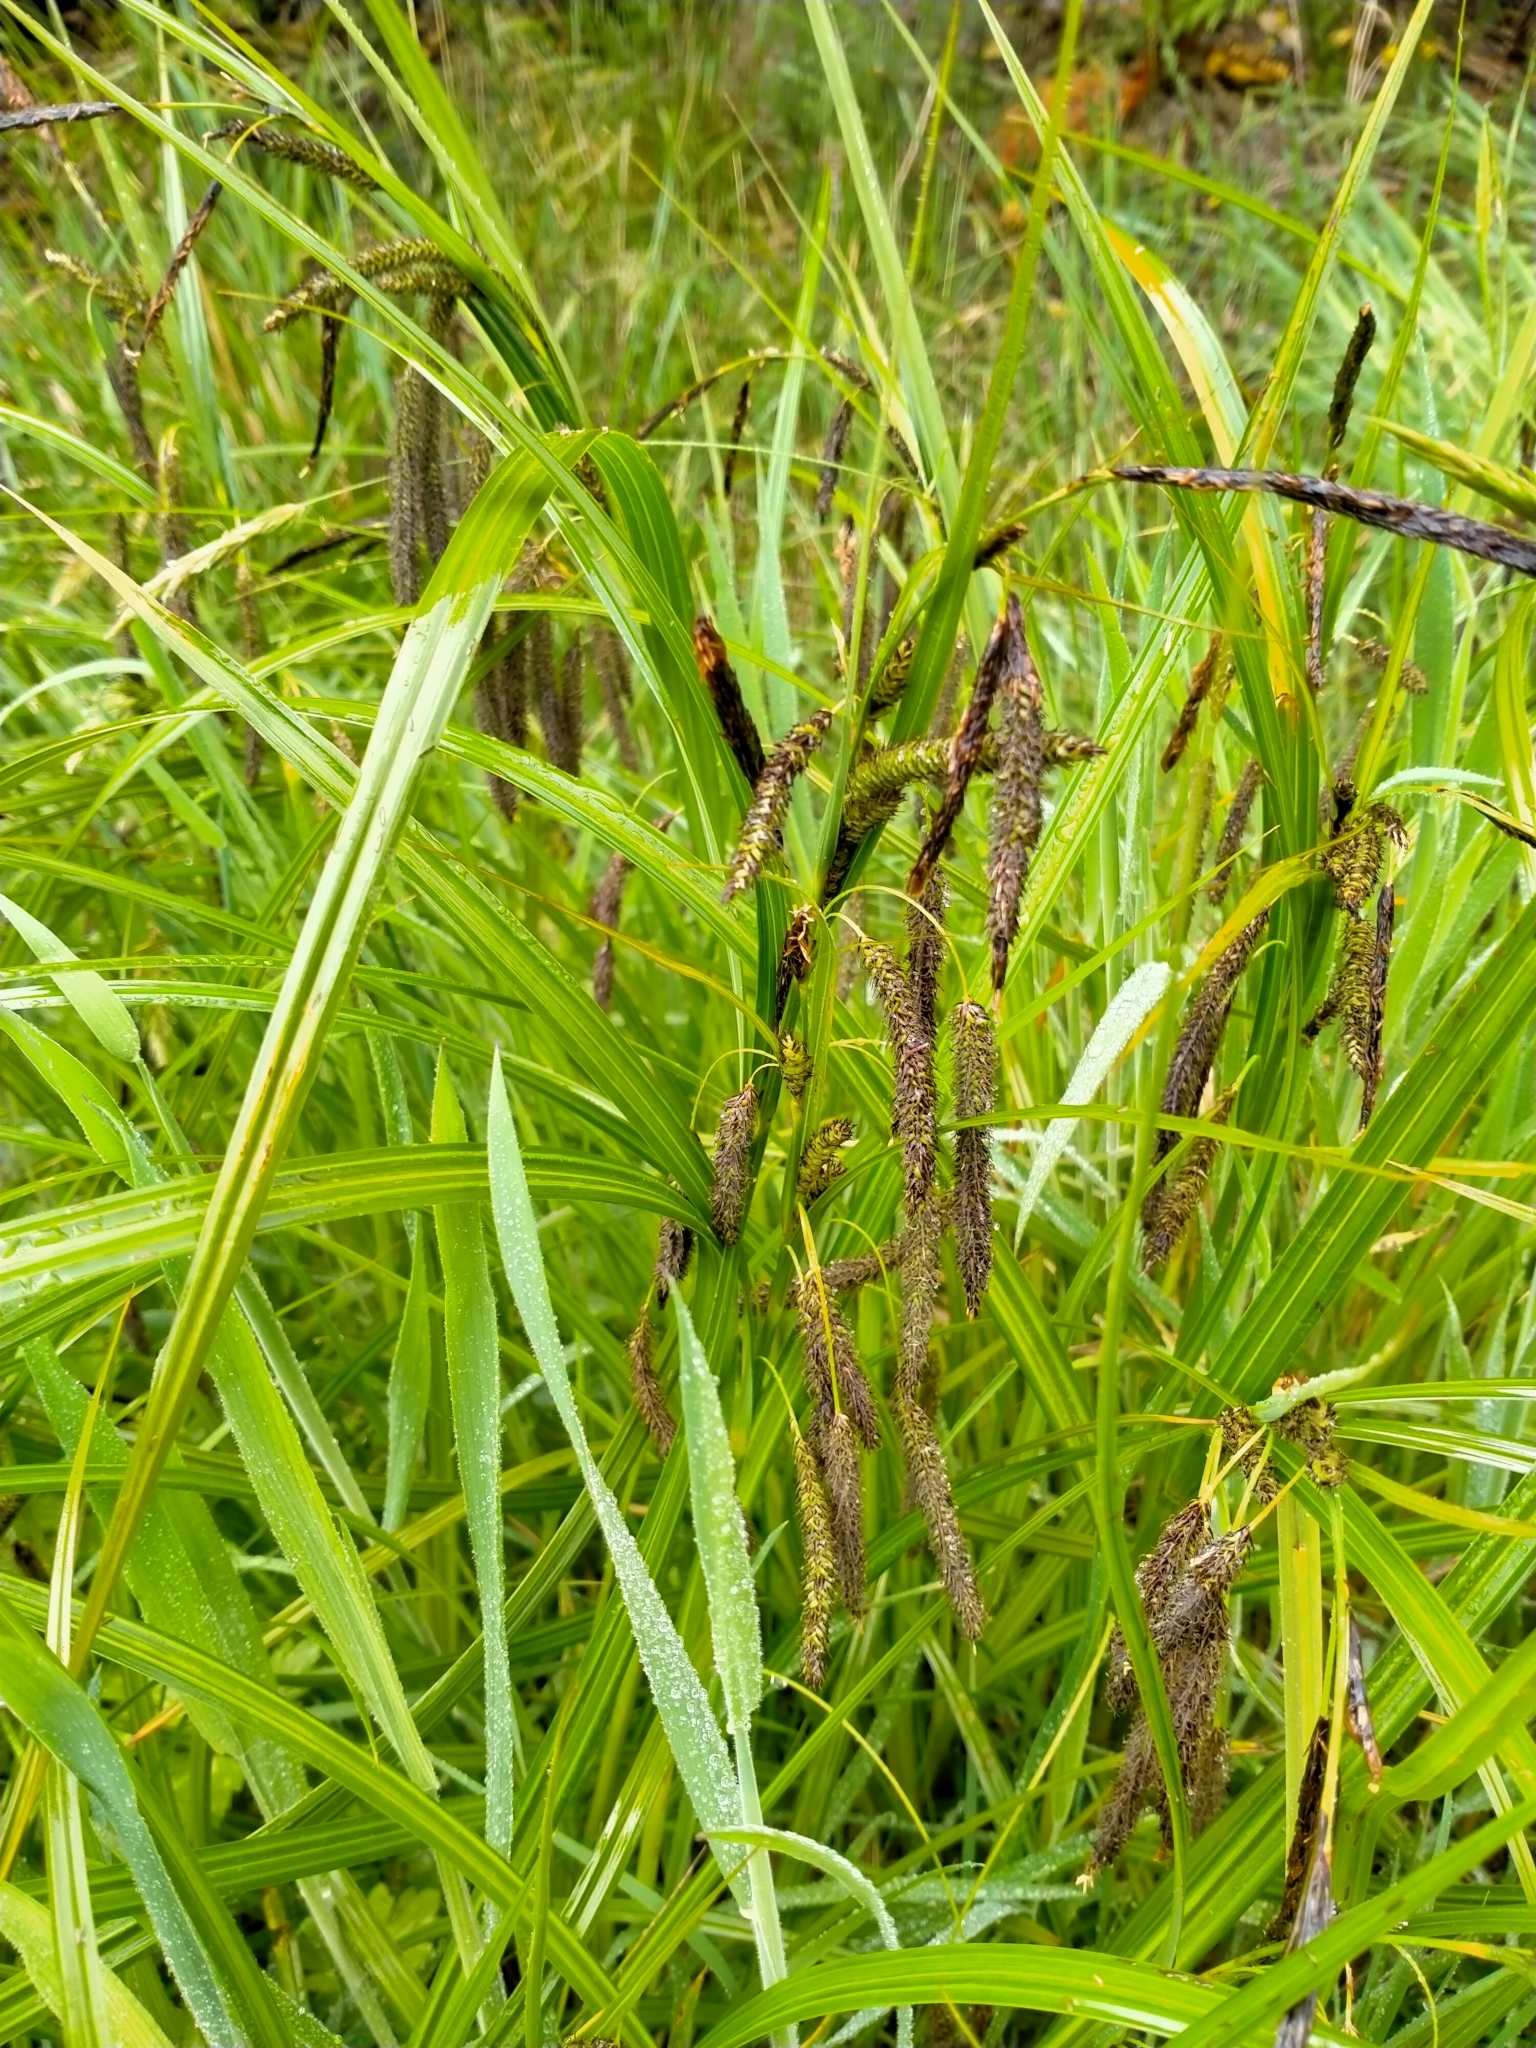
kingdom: Plantae
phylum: Tracheophyta
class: Liliopsida
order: Poales
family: Cyperaceae
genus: Carex
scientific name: Carex geminata
